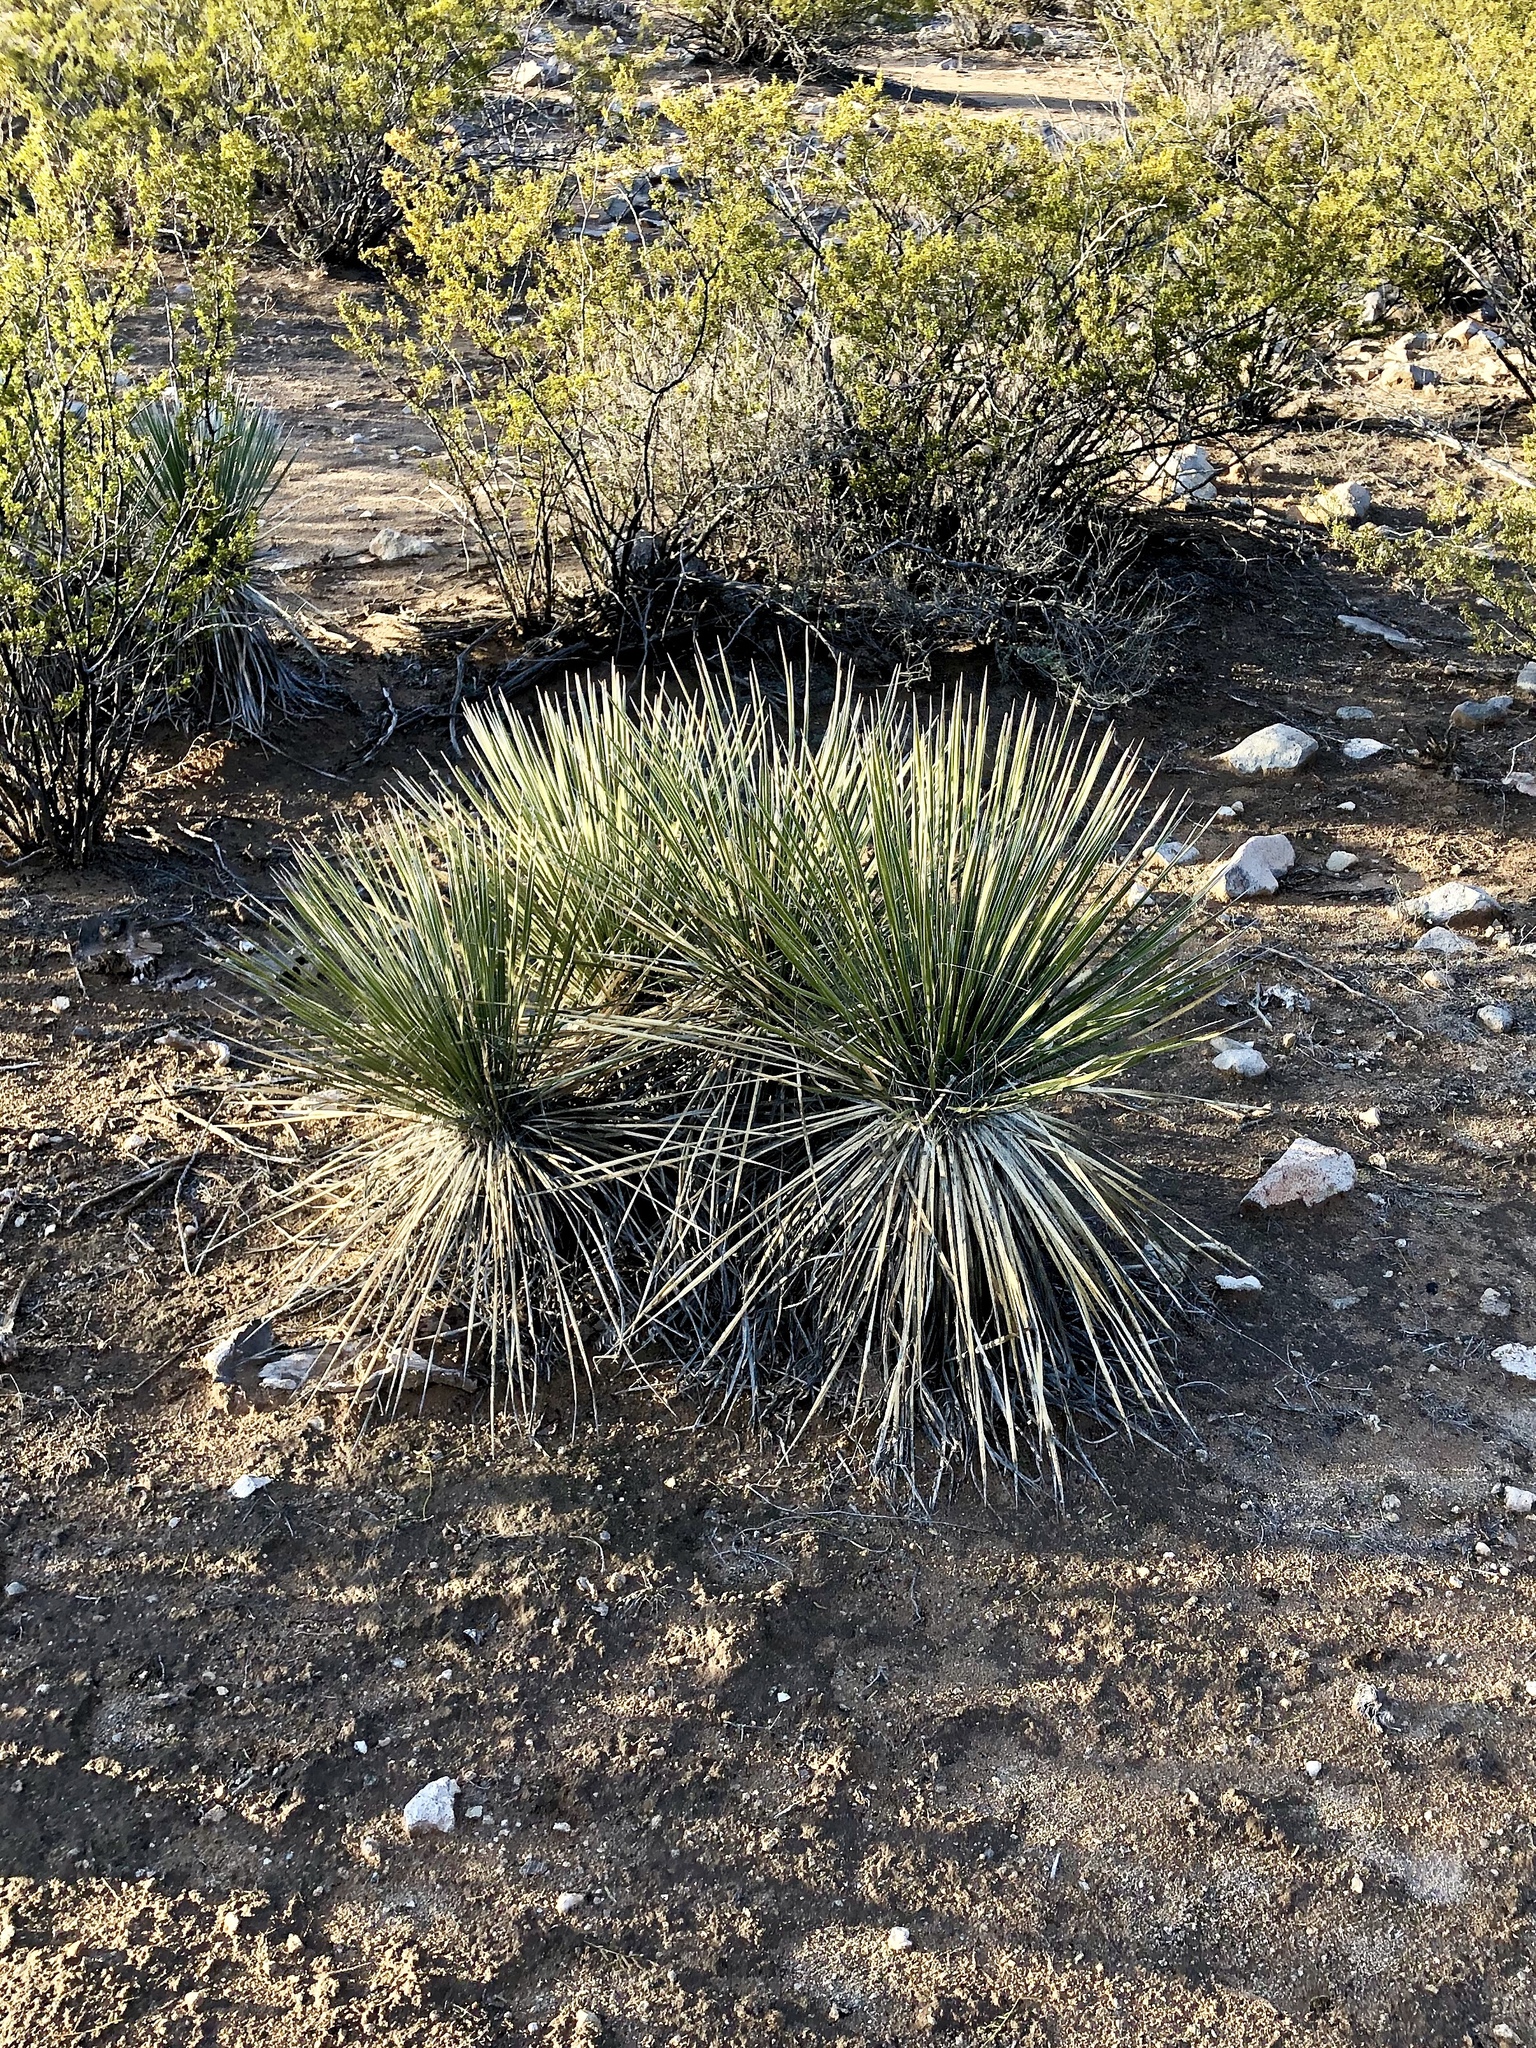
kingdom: Plantae
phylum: Tracheophyta
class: Liliopsida
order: Asparagales
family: Asparagaceae
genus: Yucca
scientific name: Yucca elata
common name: Palmella
